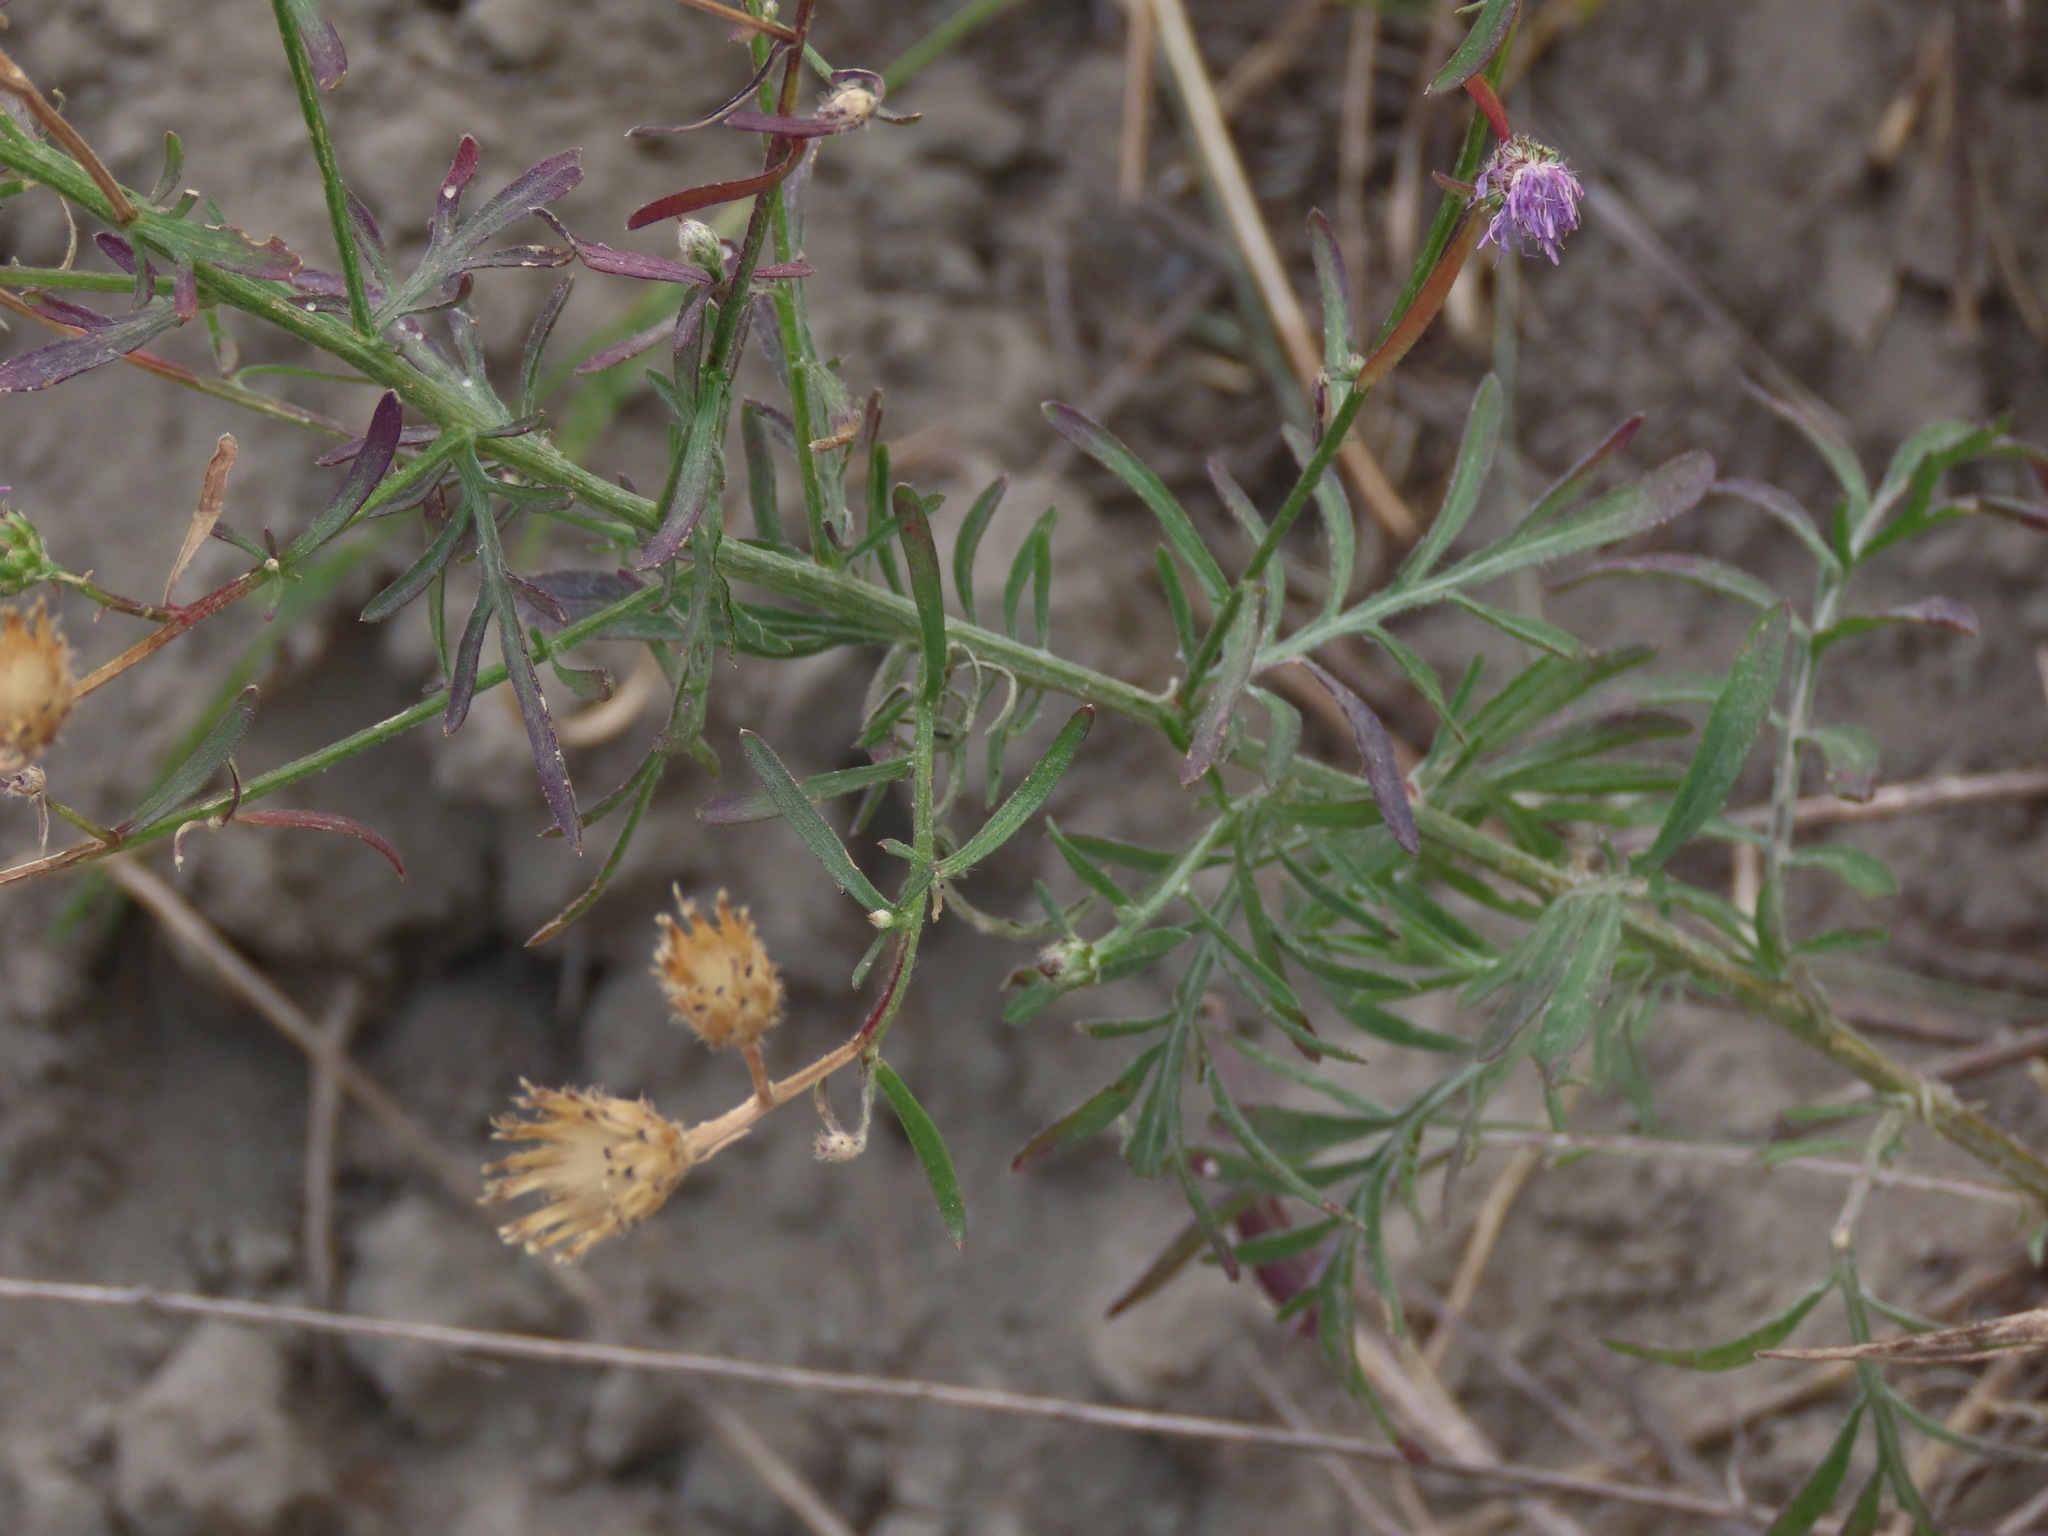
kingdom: Plantae
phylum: Tracheophyta
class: Magnoliopsida
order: Asterales
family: Asteraceae
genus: Centaurea
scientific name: Centaurea stoebe
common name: Spotted knapweed
